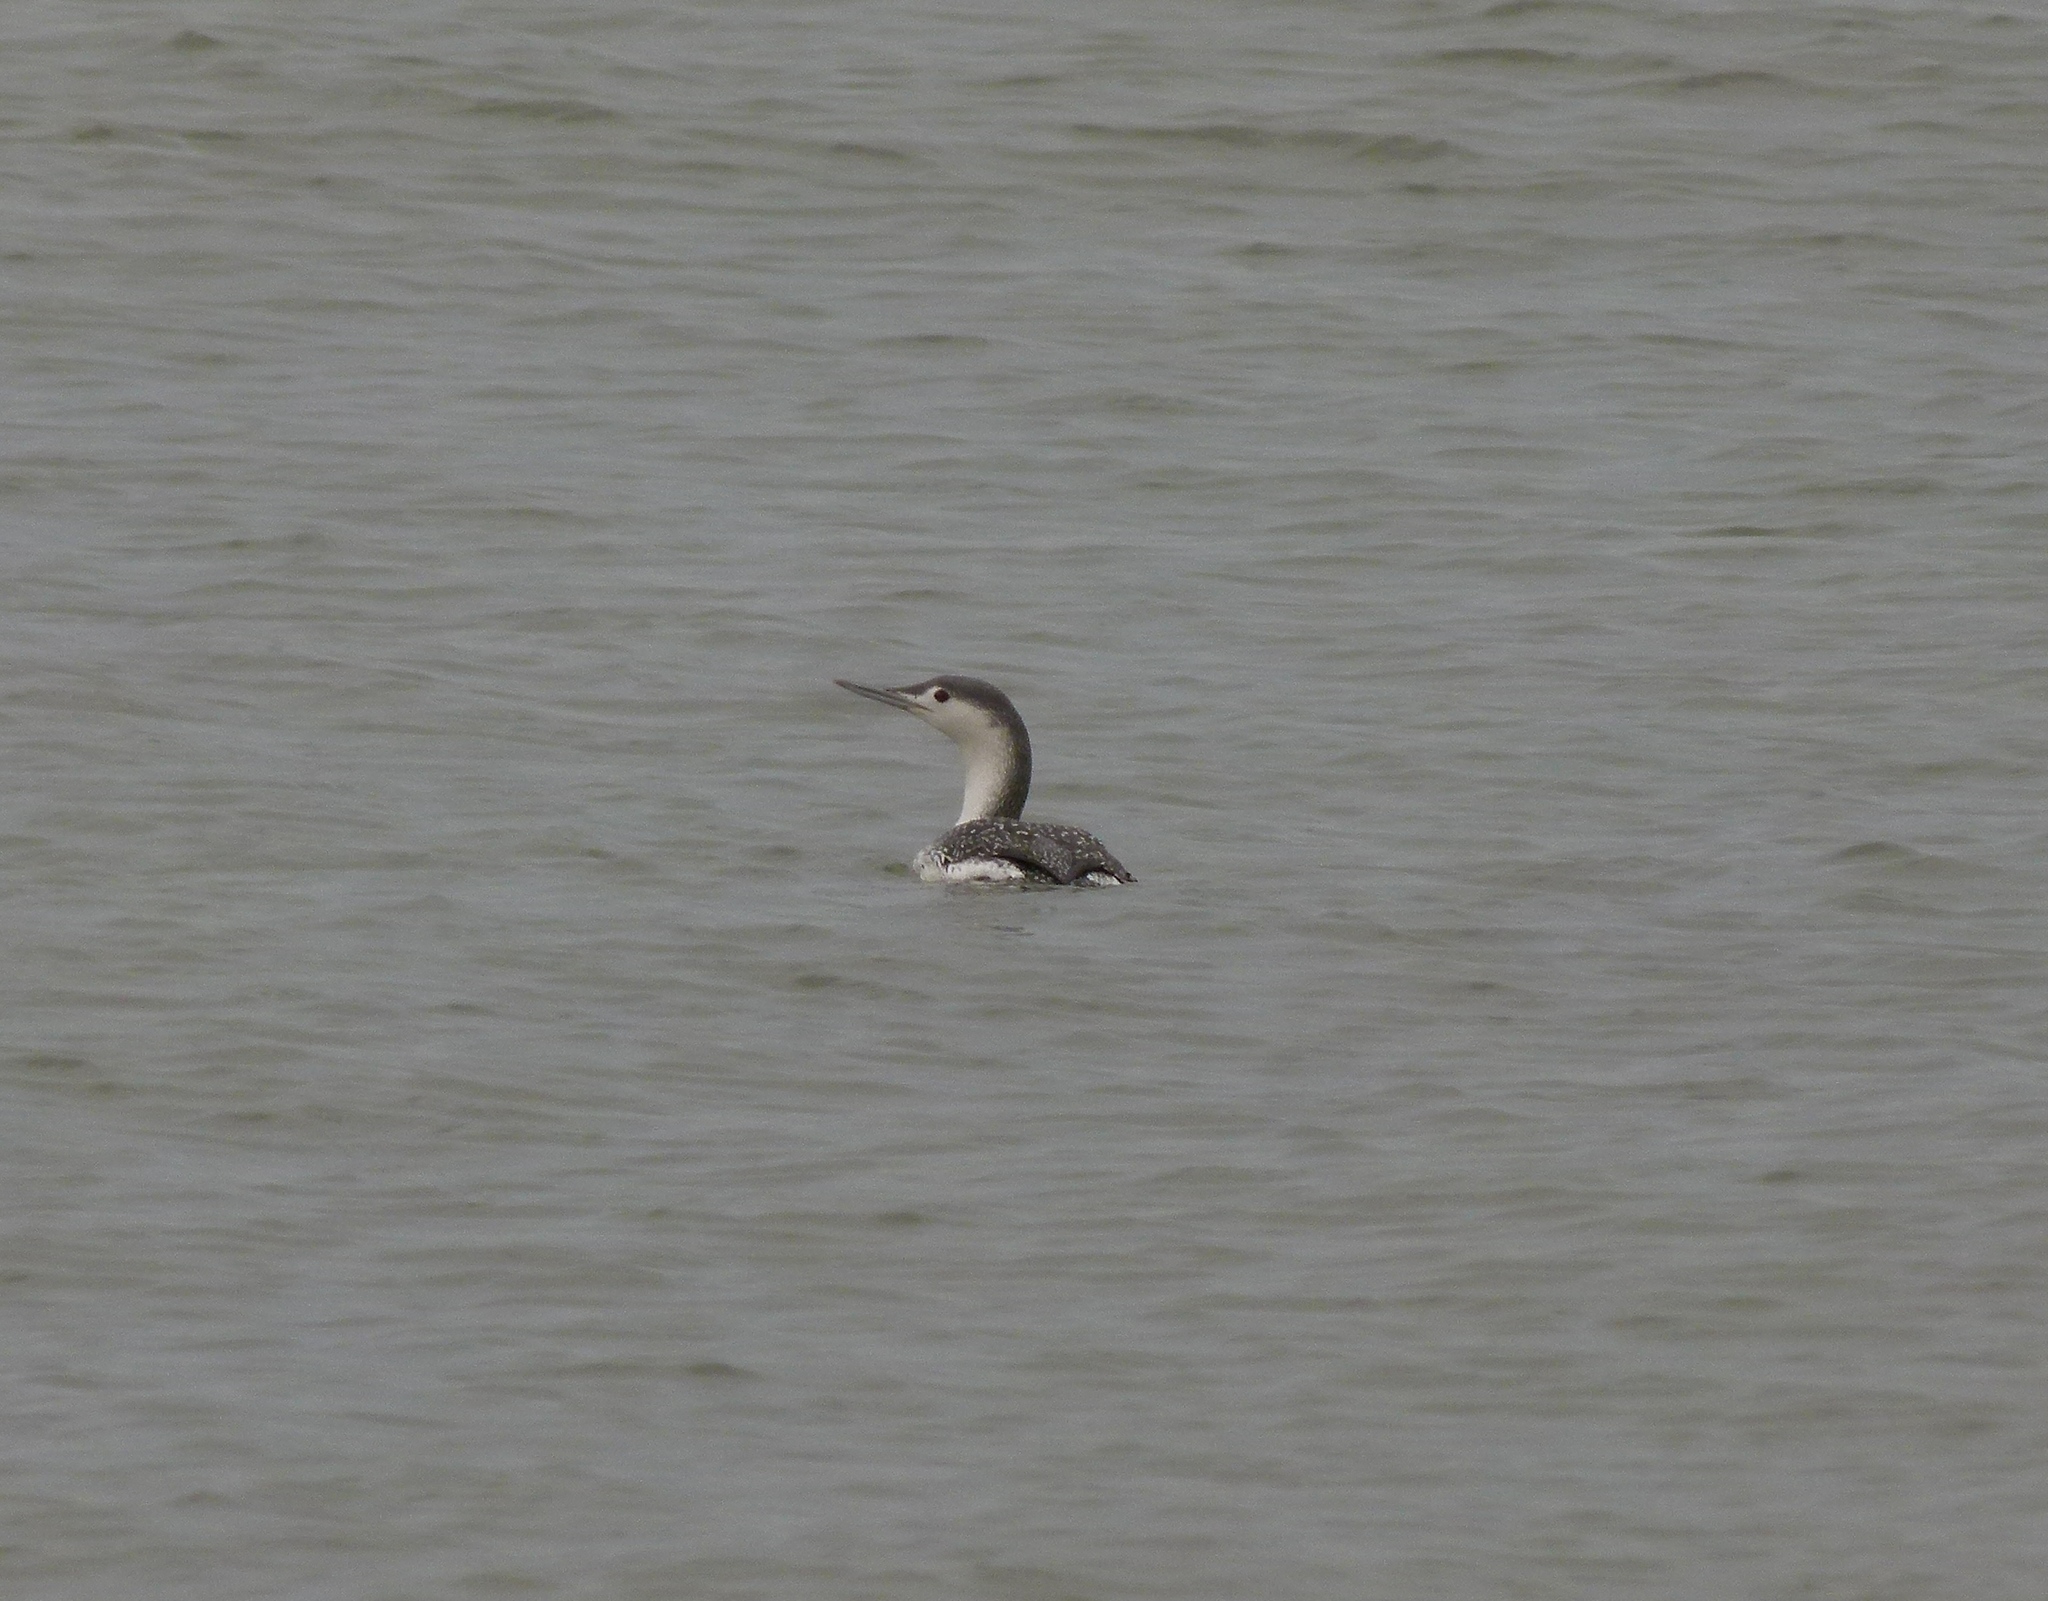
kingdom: Animalia
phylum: Chordata
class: Aves
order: Gaviiformes
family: Gaviidae
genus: Gavia
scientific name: Gavia stellata
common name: Red-throated loon
